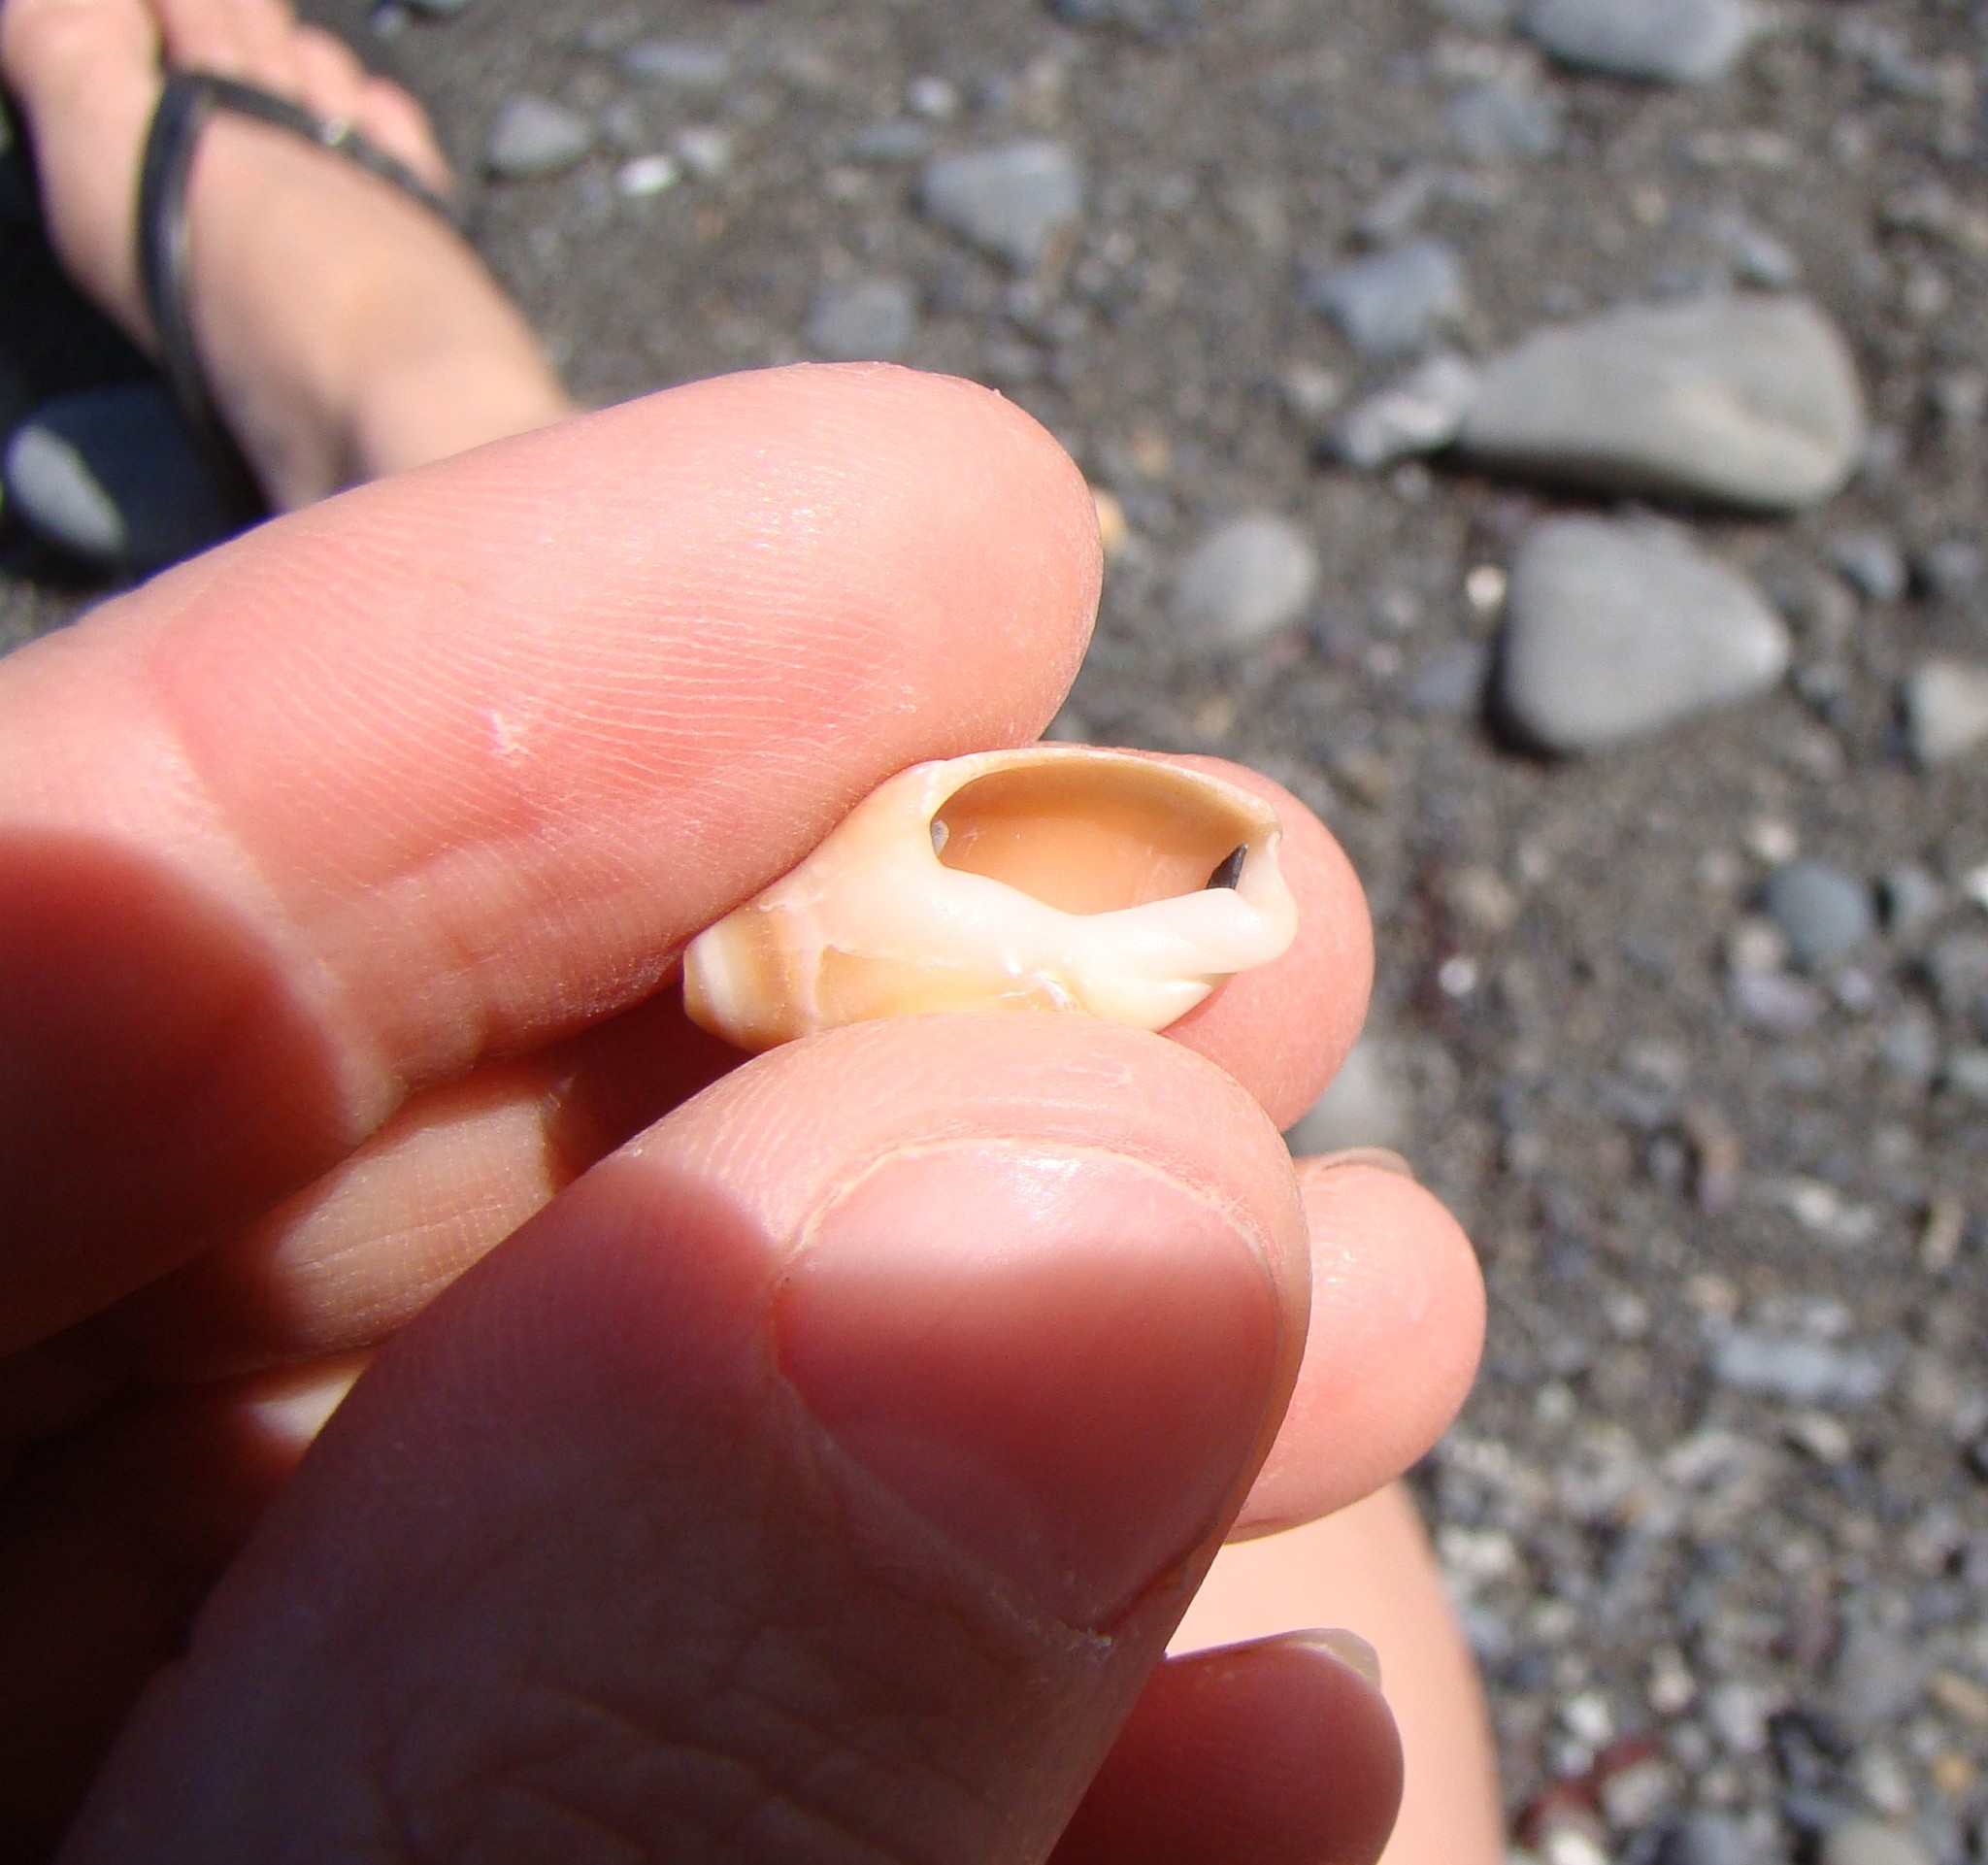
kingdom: Animalia
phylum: Mollusca
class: Gastropoda
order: Neogastropoda
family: Ancillariidae
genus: Amalda
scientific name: Amalda depressa
